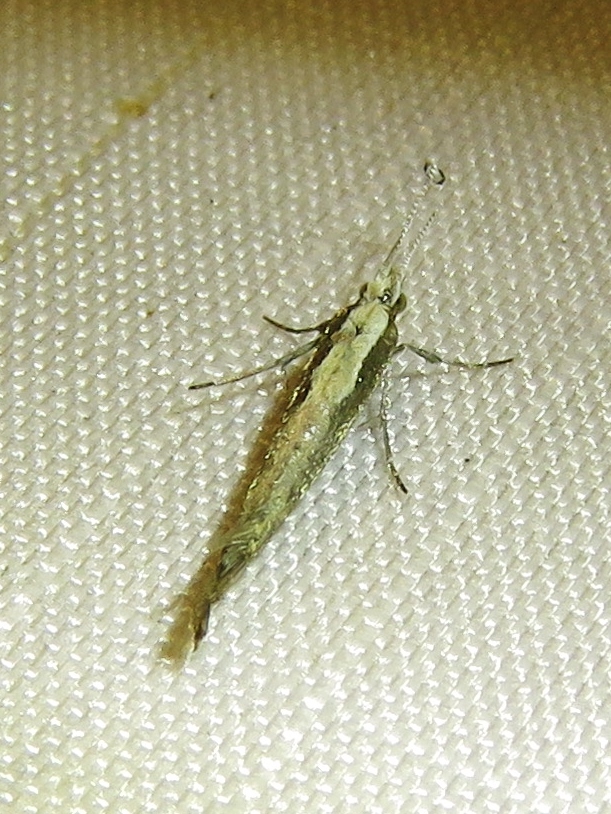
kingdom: Animalia
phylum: Arthropoda
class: Insecta
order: Lepidoptera
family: Plutellidae
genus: Plutella
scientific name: Plutella xylostella
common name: Diamond-back moth
